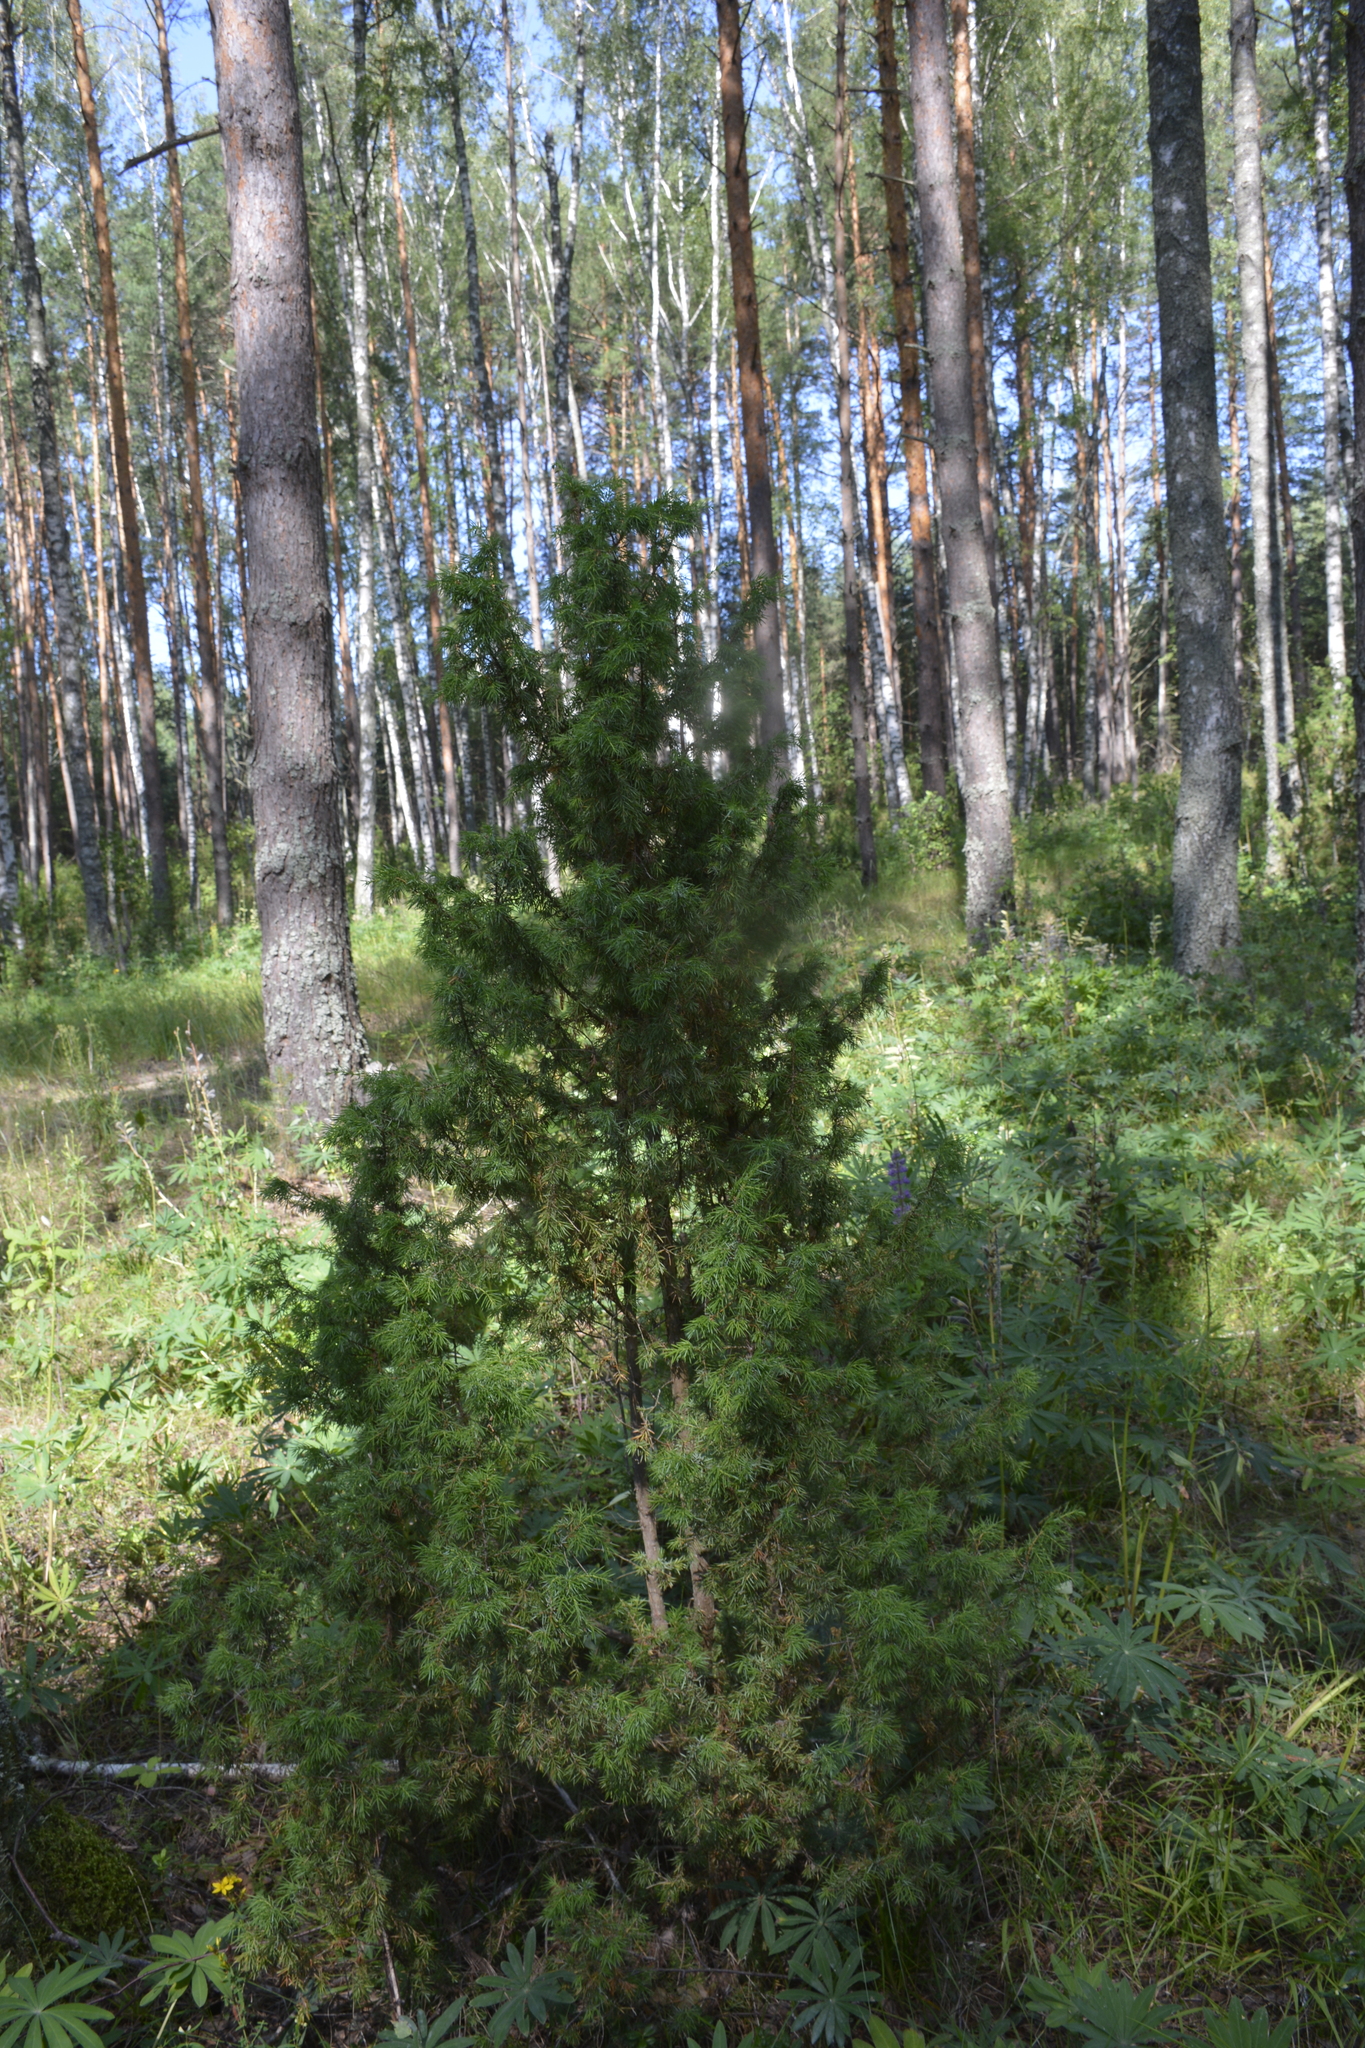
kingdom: Plantae
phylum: Tracheophyta
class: Pinopsida
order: Pinales
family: Cupressaceae
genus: Juniperus
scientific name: Juniperus communis
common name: Common juniper
